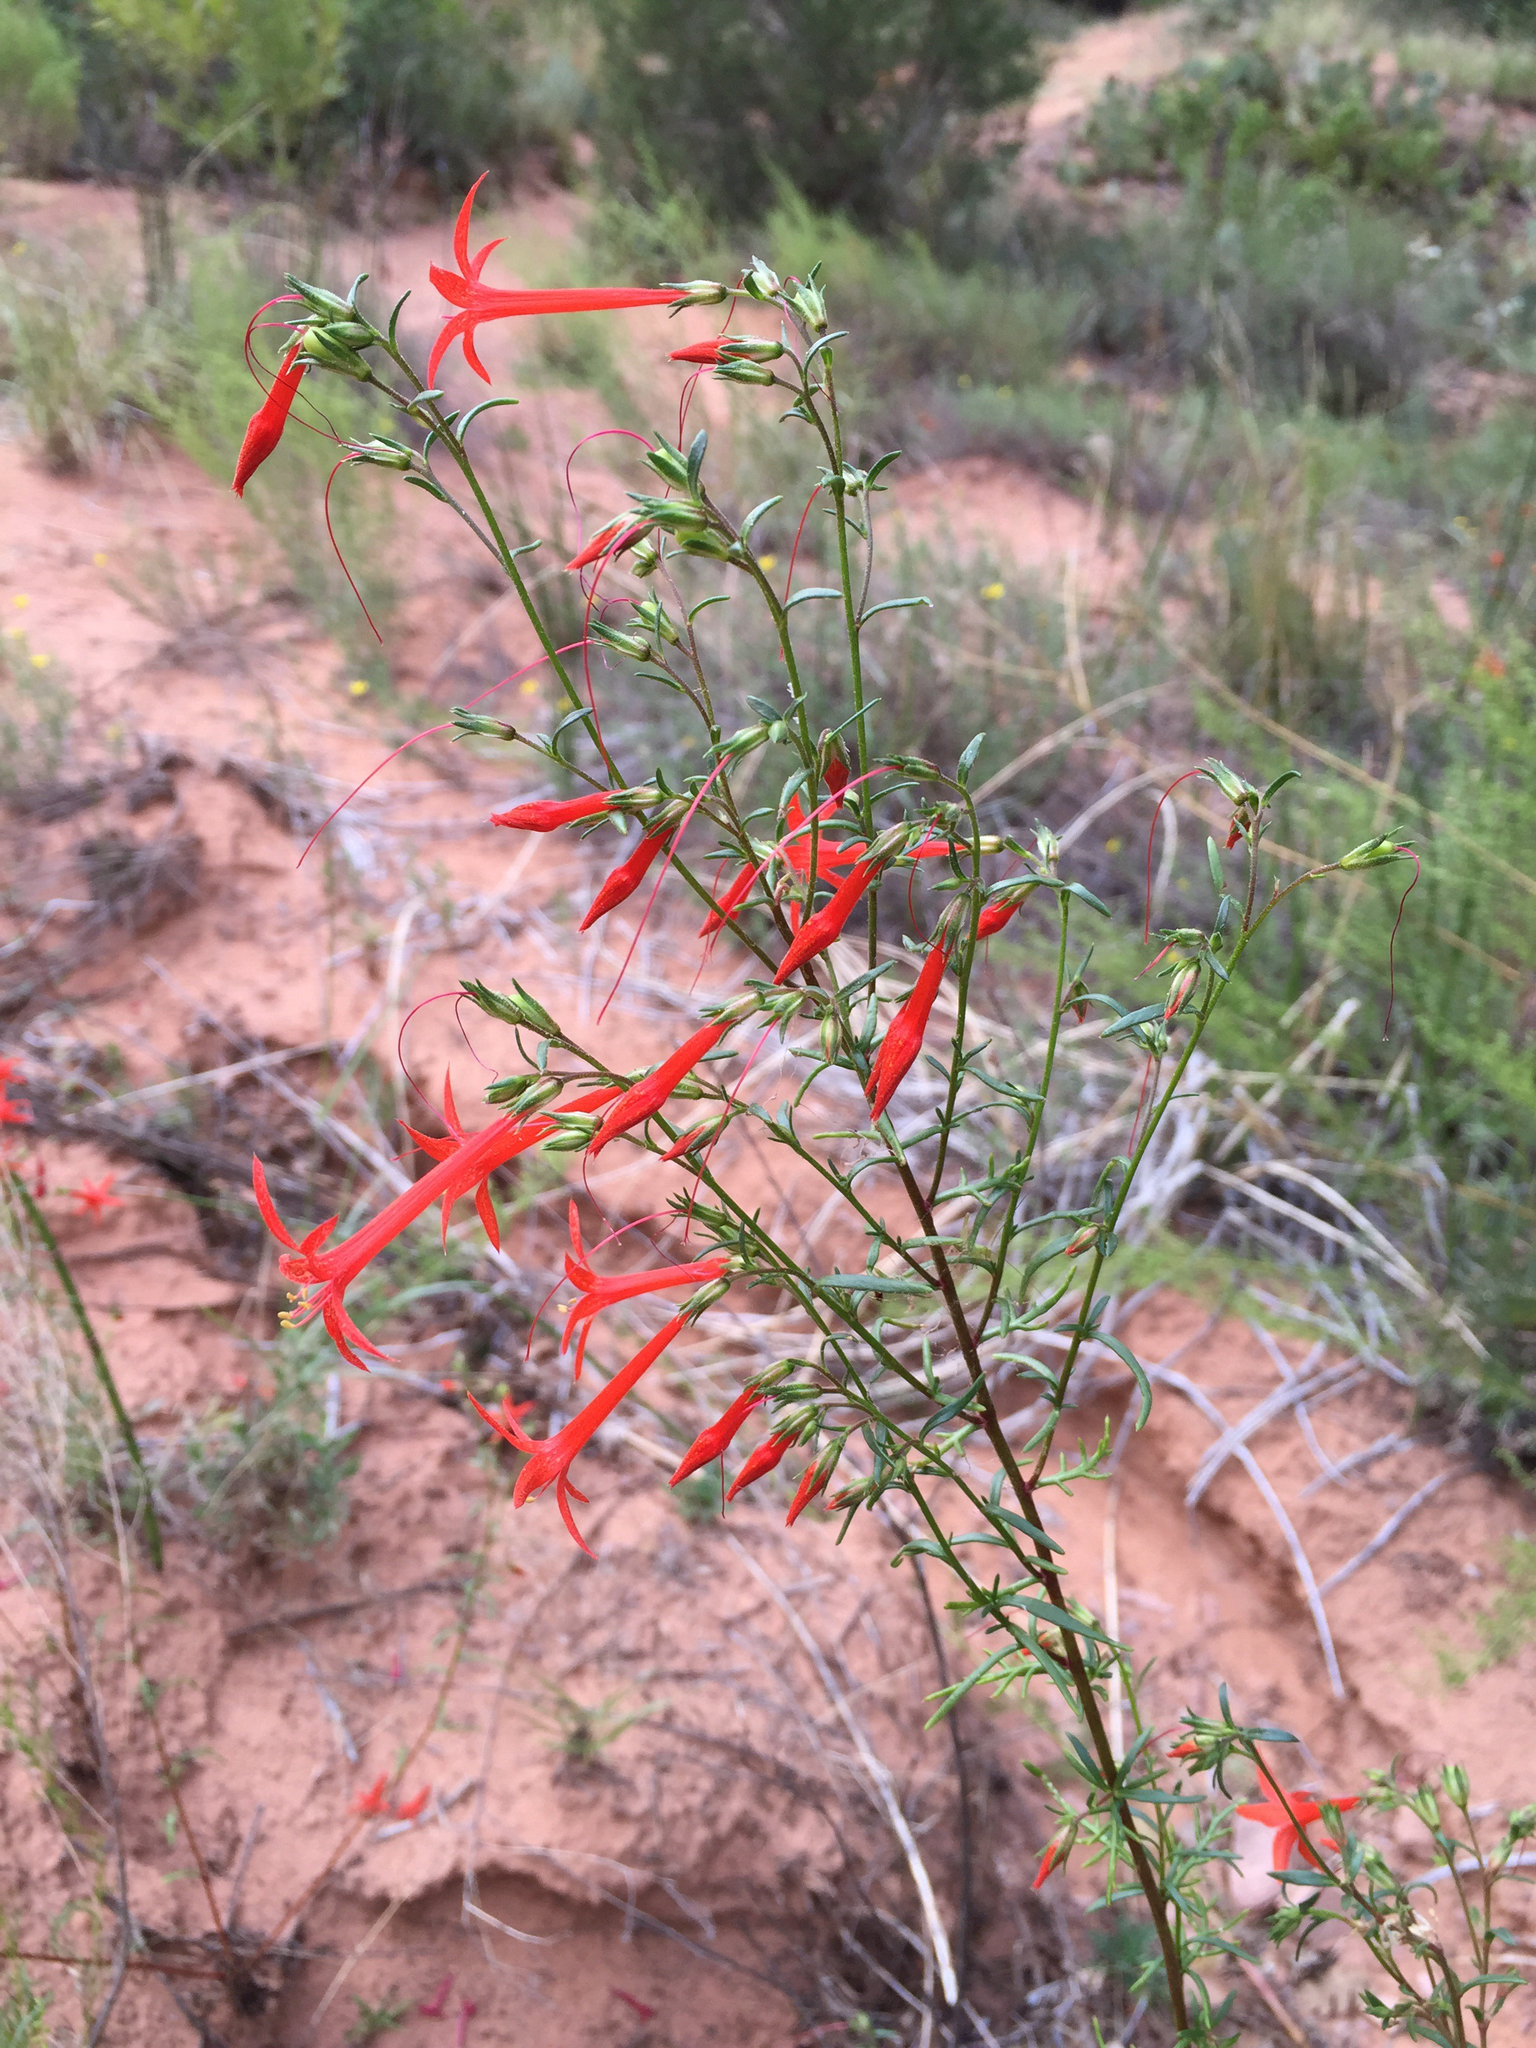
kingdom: Plantae
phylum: Tracheophyta
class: Magnoliopsida
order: Ericales
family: Polemoniaceae
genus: Ipomopsis
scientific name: Ipomopsis aggregata
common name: Scarlet gilia
